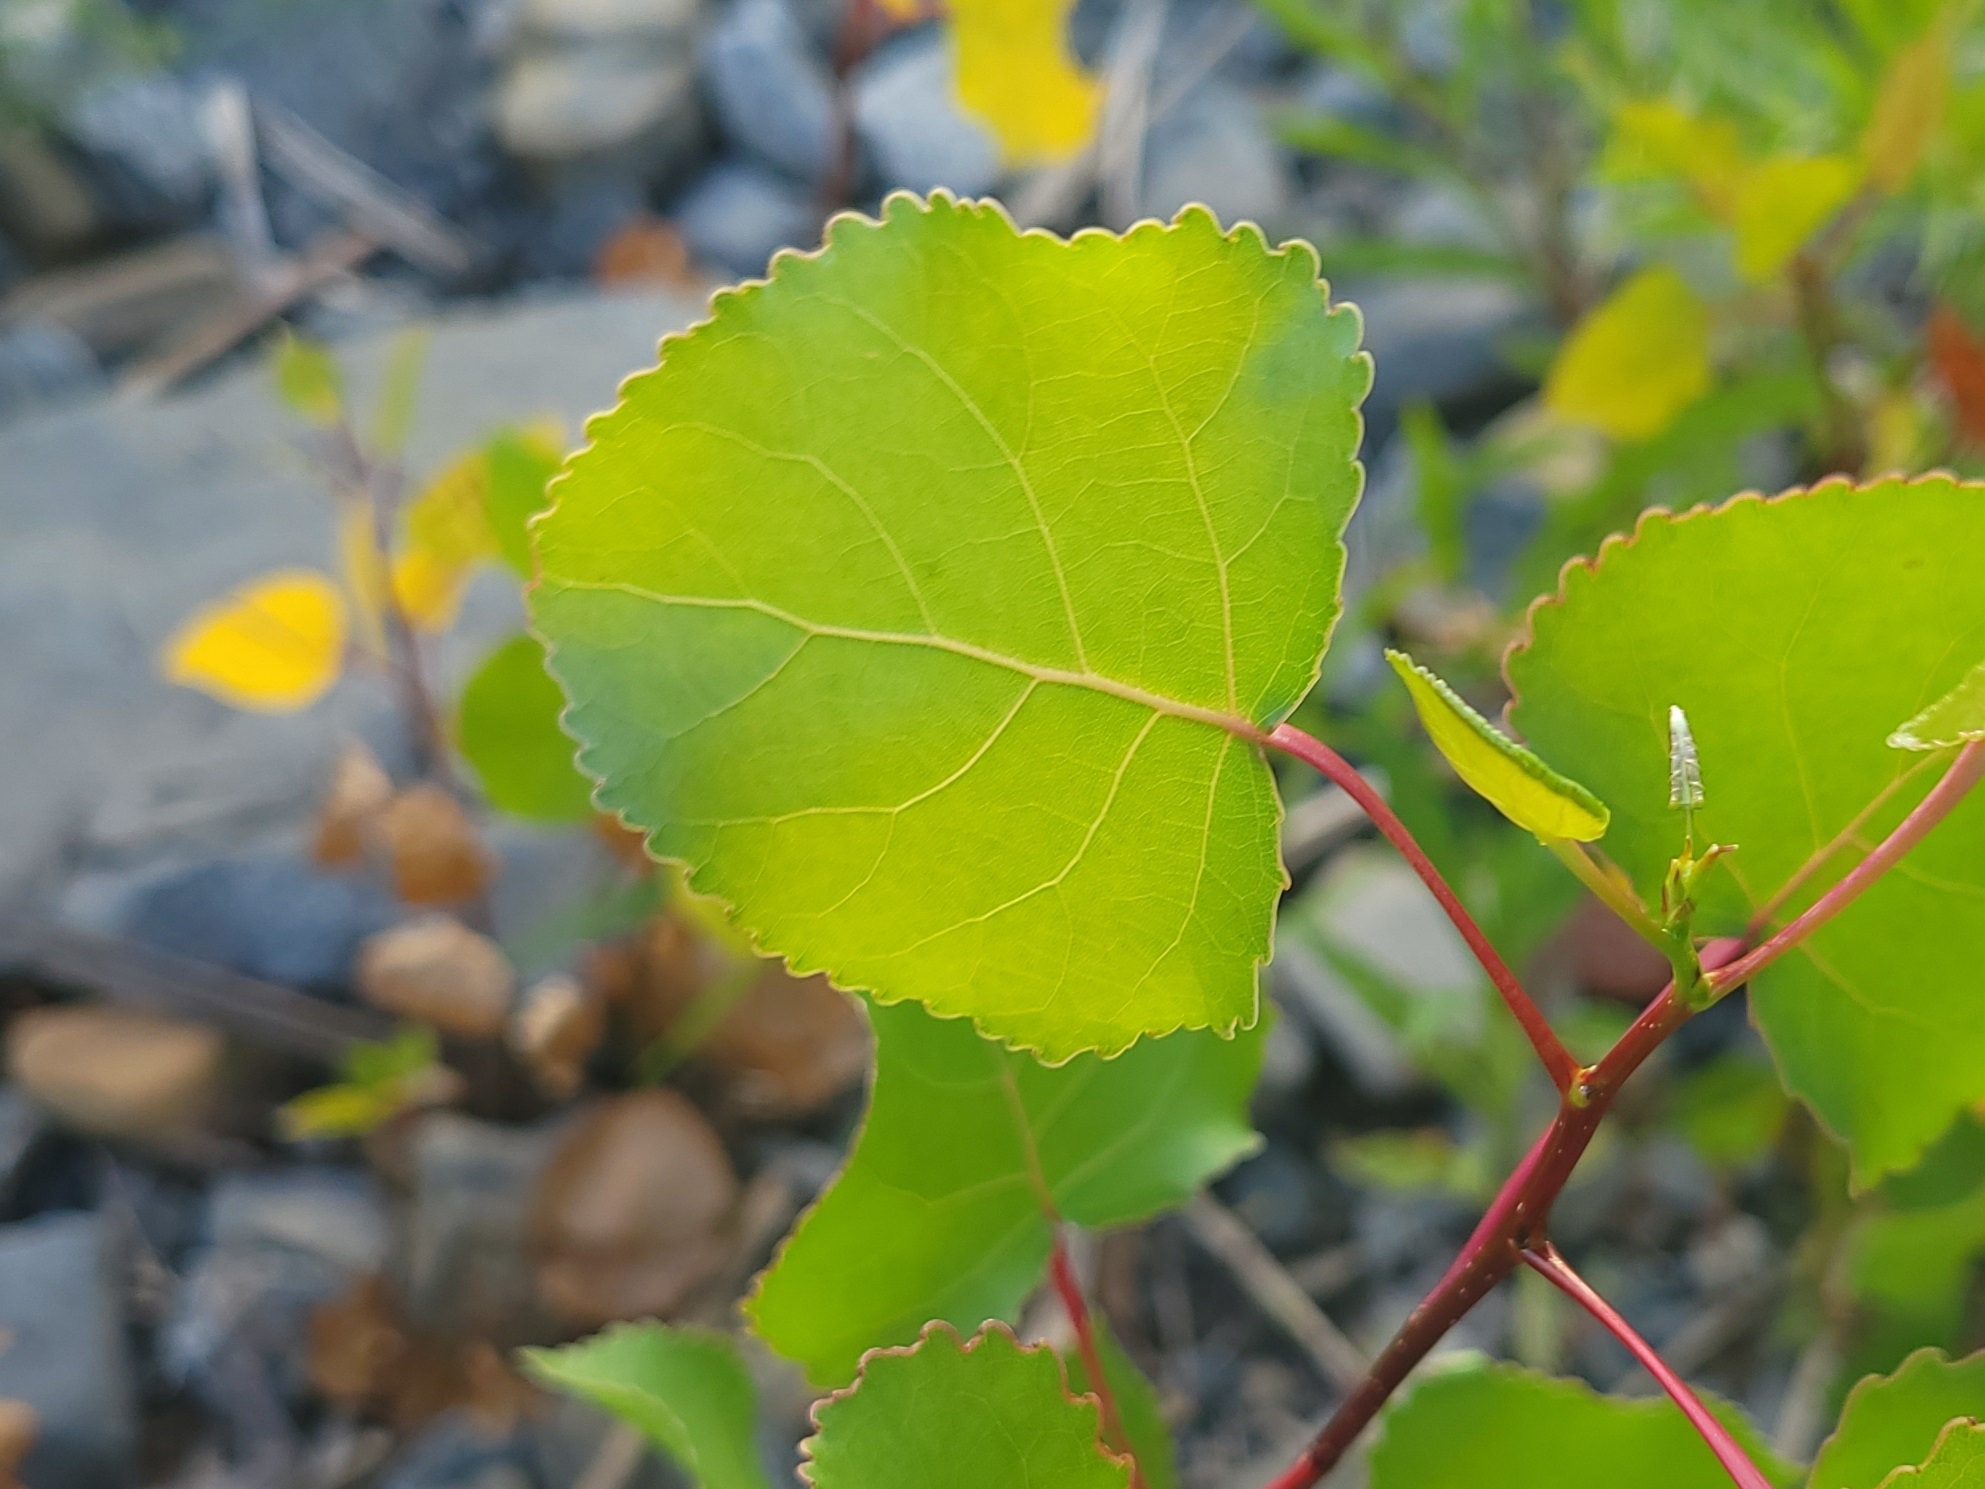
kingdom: Plantae
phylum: Tracheophyta
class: Magnoliopsida
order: Malpighiales
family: Salicaceae
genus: Populus
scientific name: Populus deltoides
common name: Eastern cottonwood
